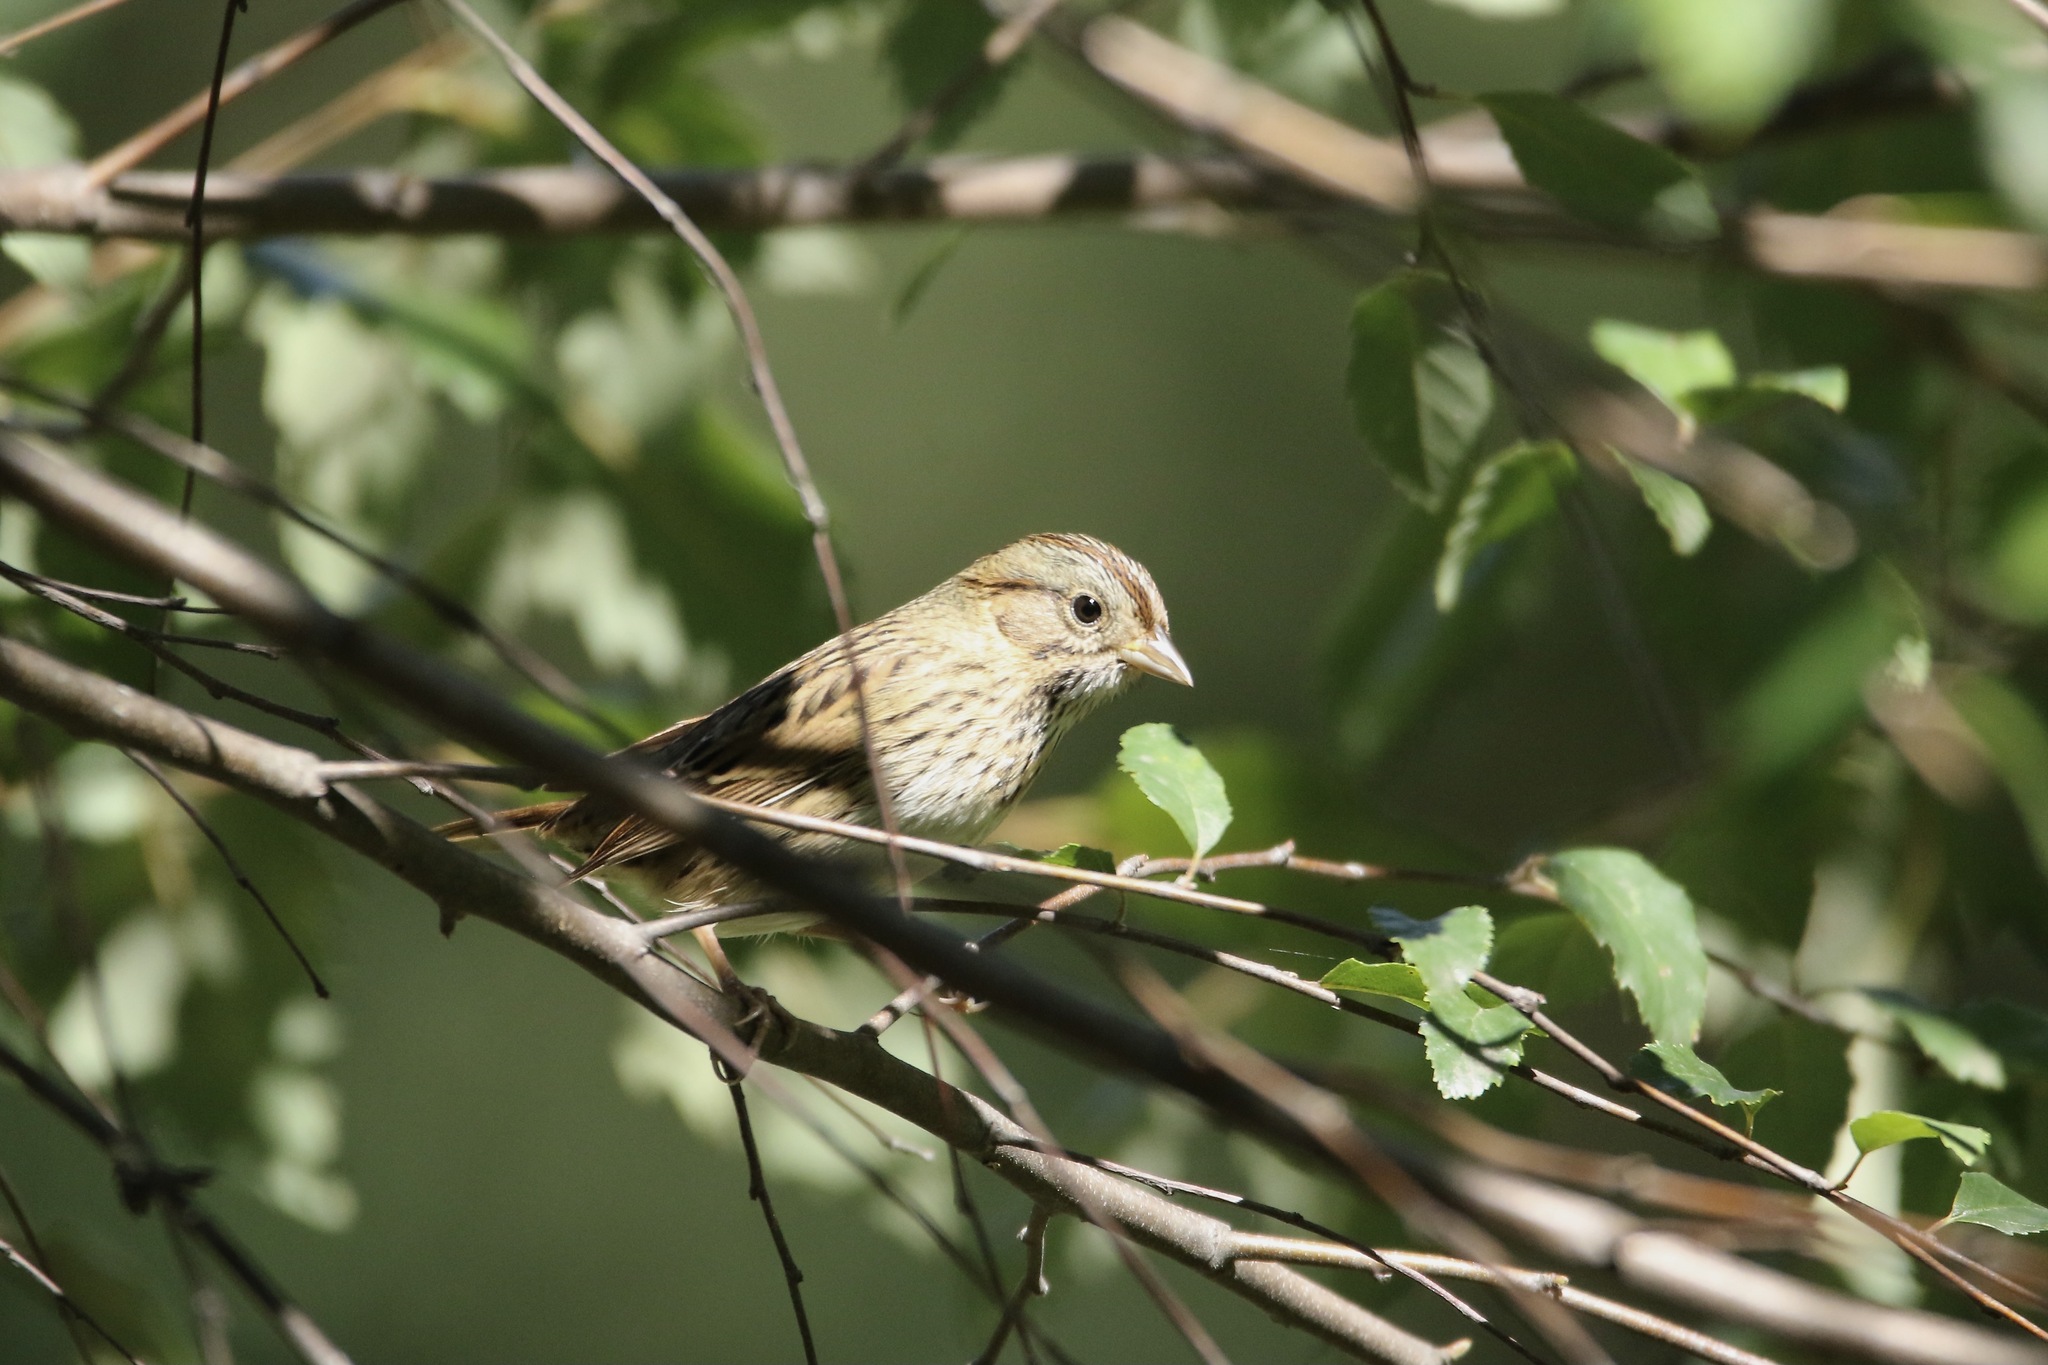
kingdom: Animalia
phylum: Chordata
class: Aves
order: Passeriformes
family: Passerellidae
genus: Melospiza
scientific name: Melospiza lincolnii
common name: Lincoln's sparrow
